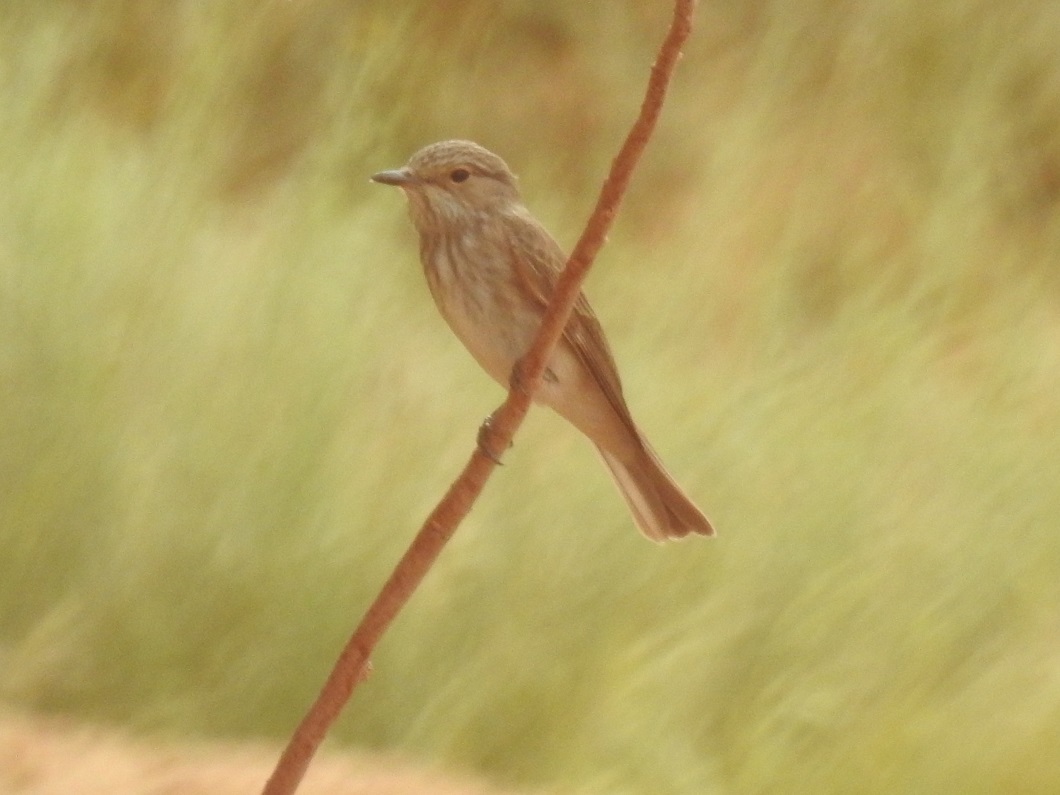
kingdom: Animalia
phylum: Chordata
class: Aves
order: Passeriformes
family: Muscicapidae
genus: Muscicapa
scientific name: Muscicapa striata
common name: Spotted flycatcher
